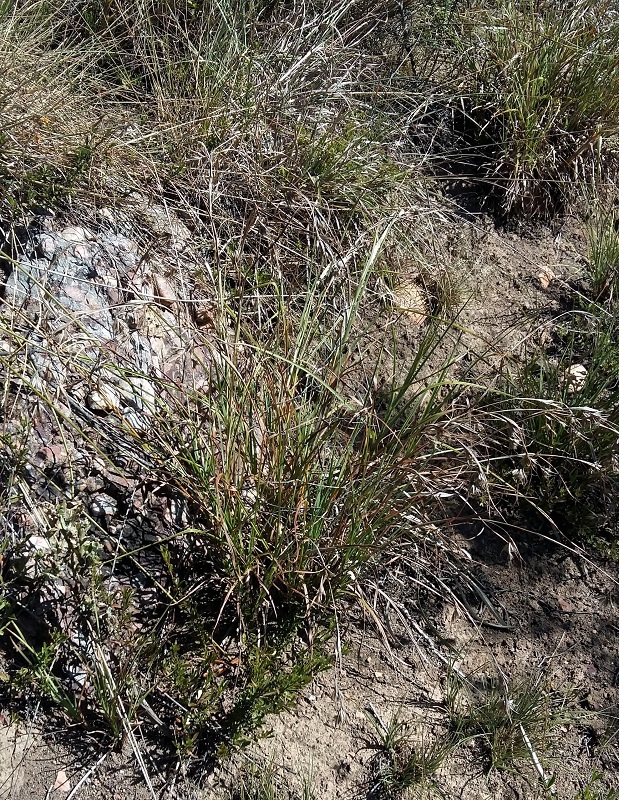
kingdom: Plantae
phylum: Tracheophyta
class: Liliopsida
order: Poales
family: Poaceae
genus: Themeda
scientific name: Themeda triandra
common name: Kangaroo grass
